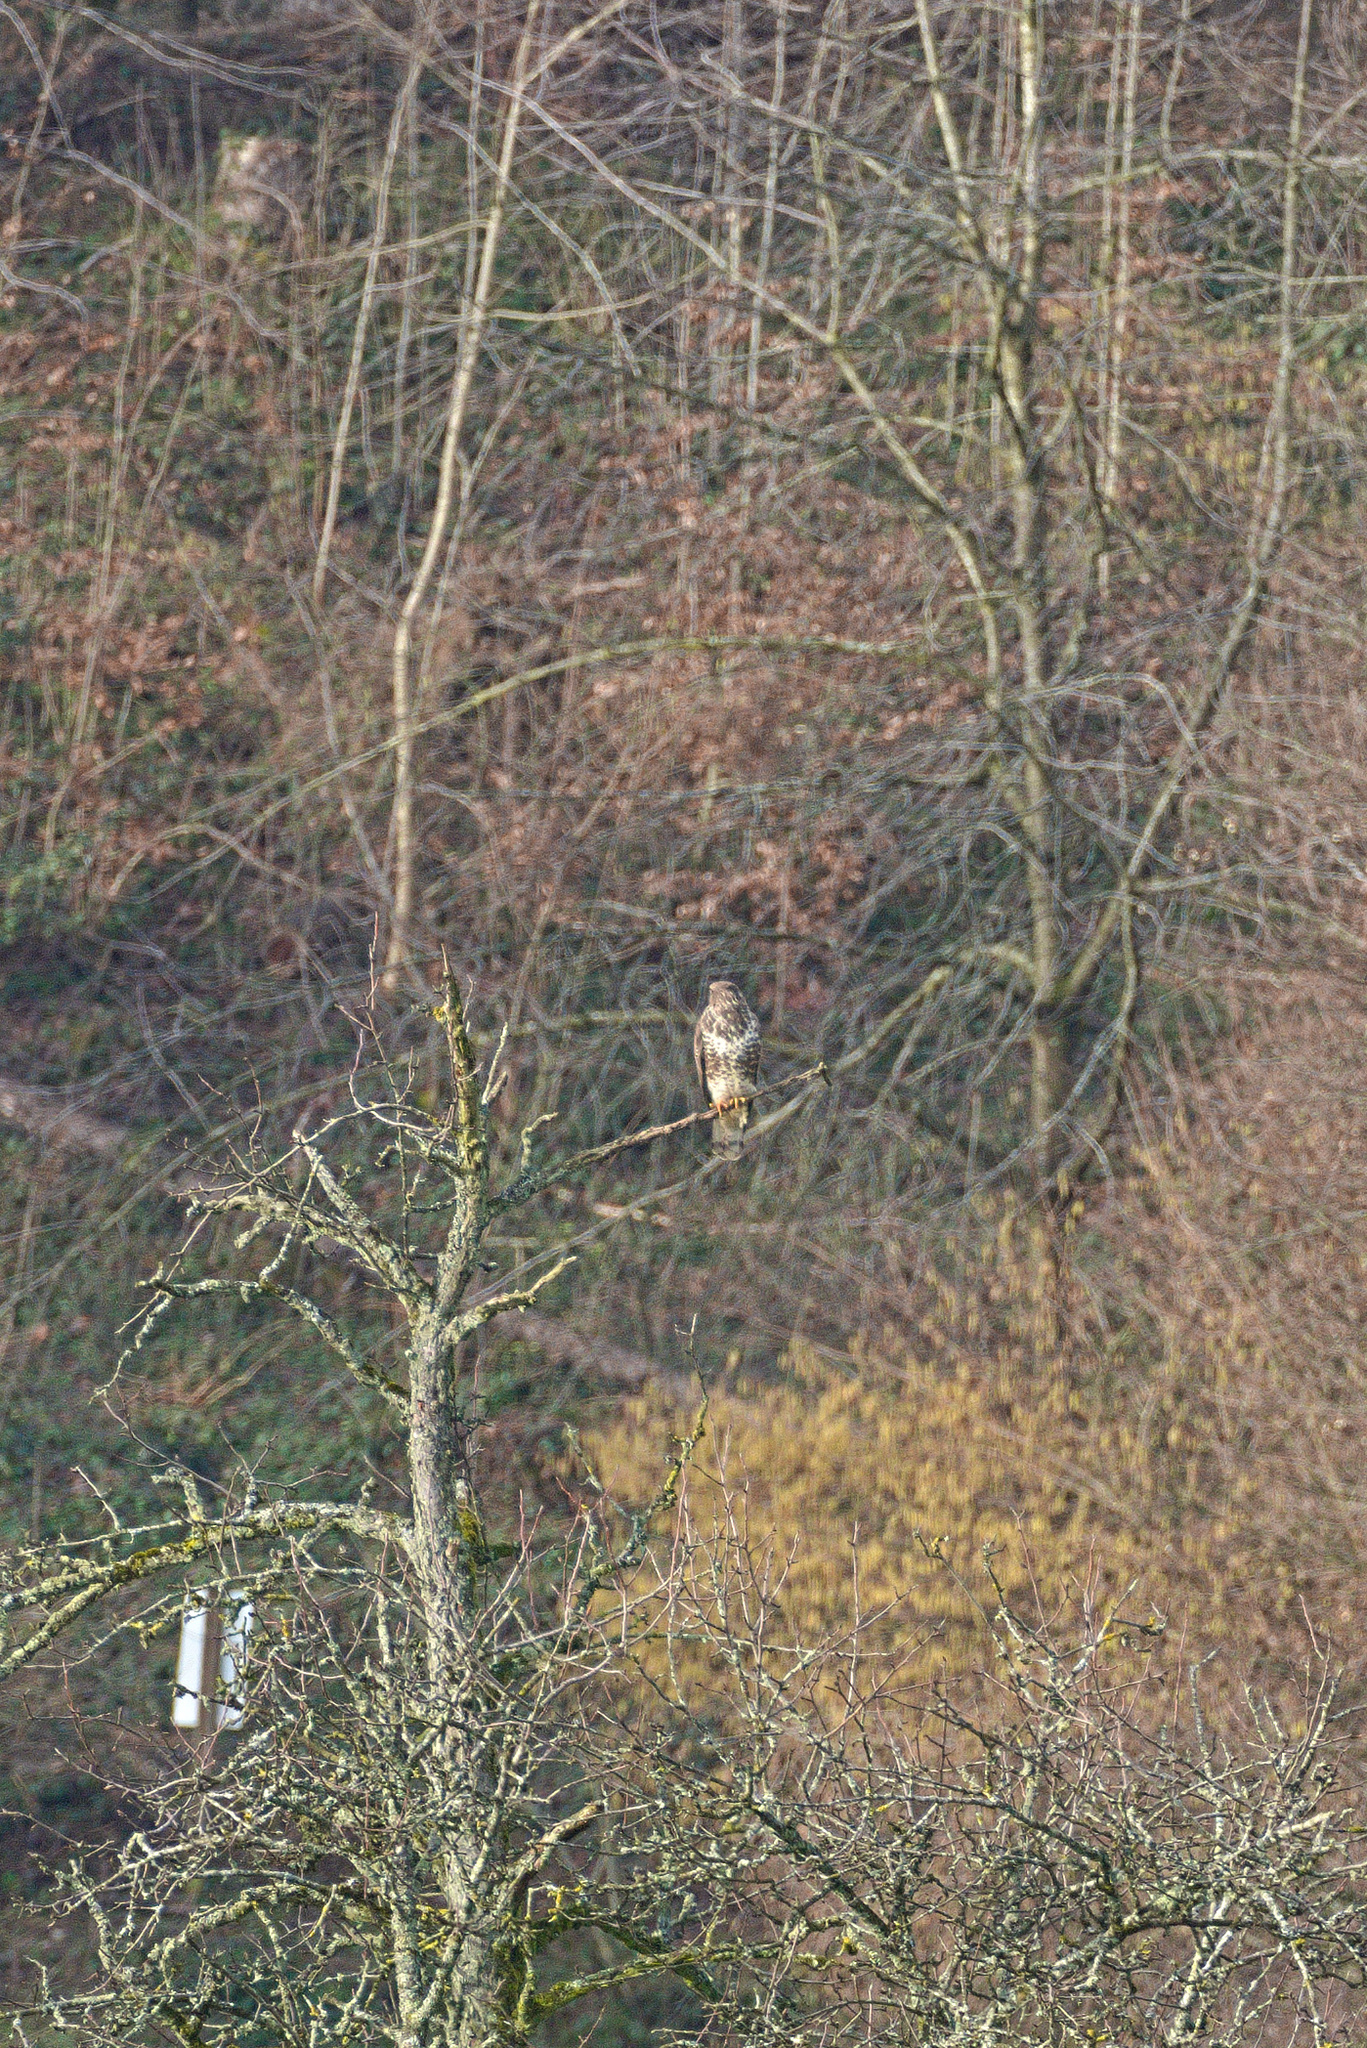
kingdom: Animalia
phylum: Chordata
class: Aves
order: Accipitriformes
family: Accipitridae
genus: Buteo
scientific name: Buteo buteo
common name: Common buzzard
